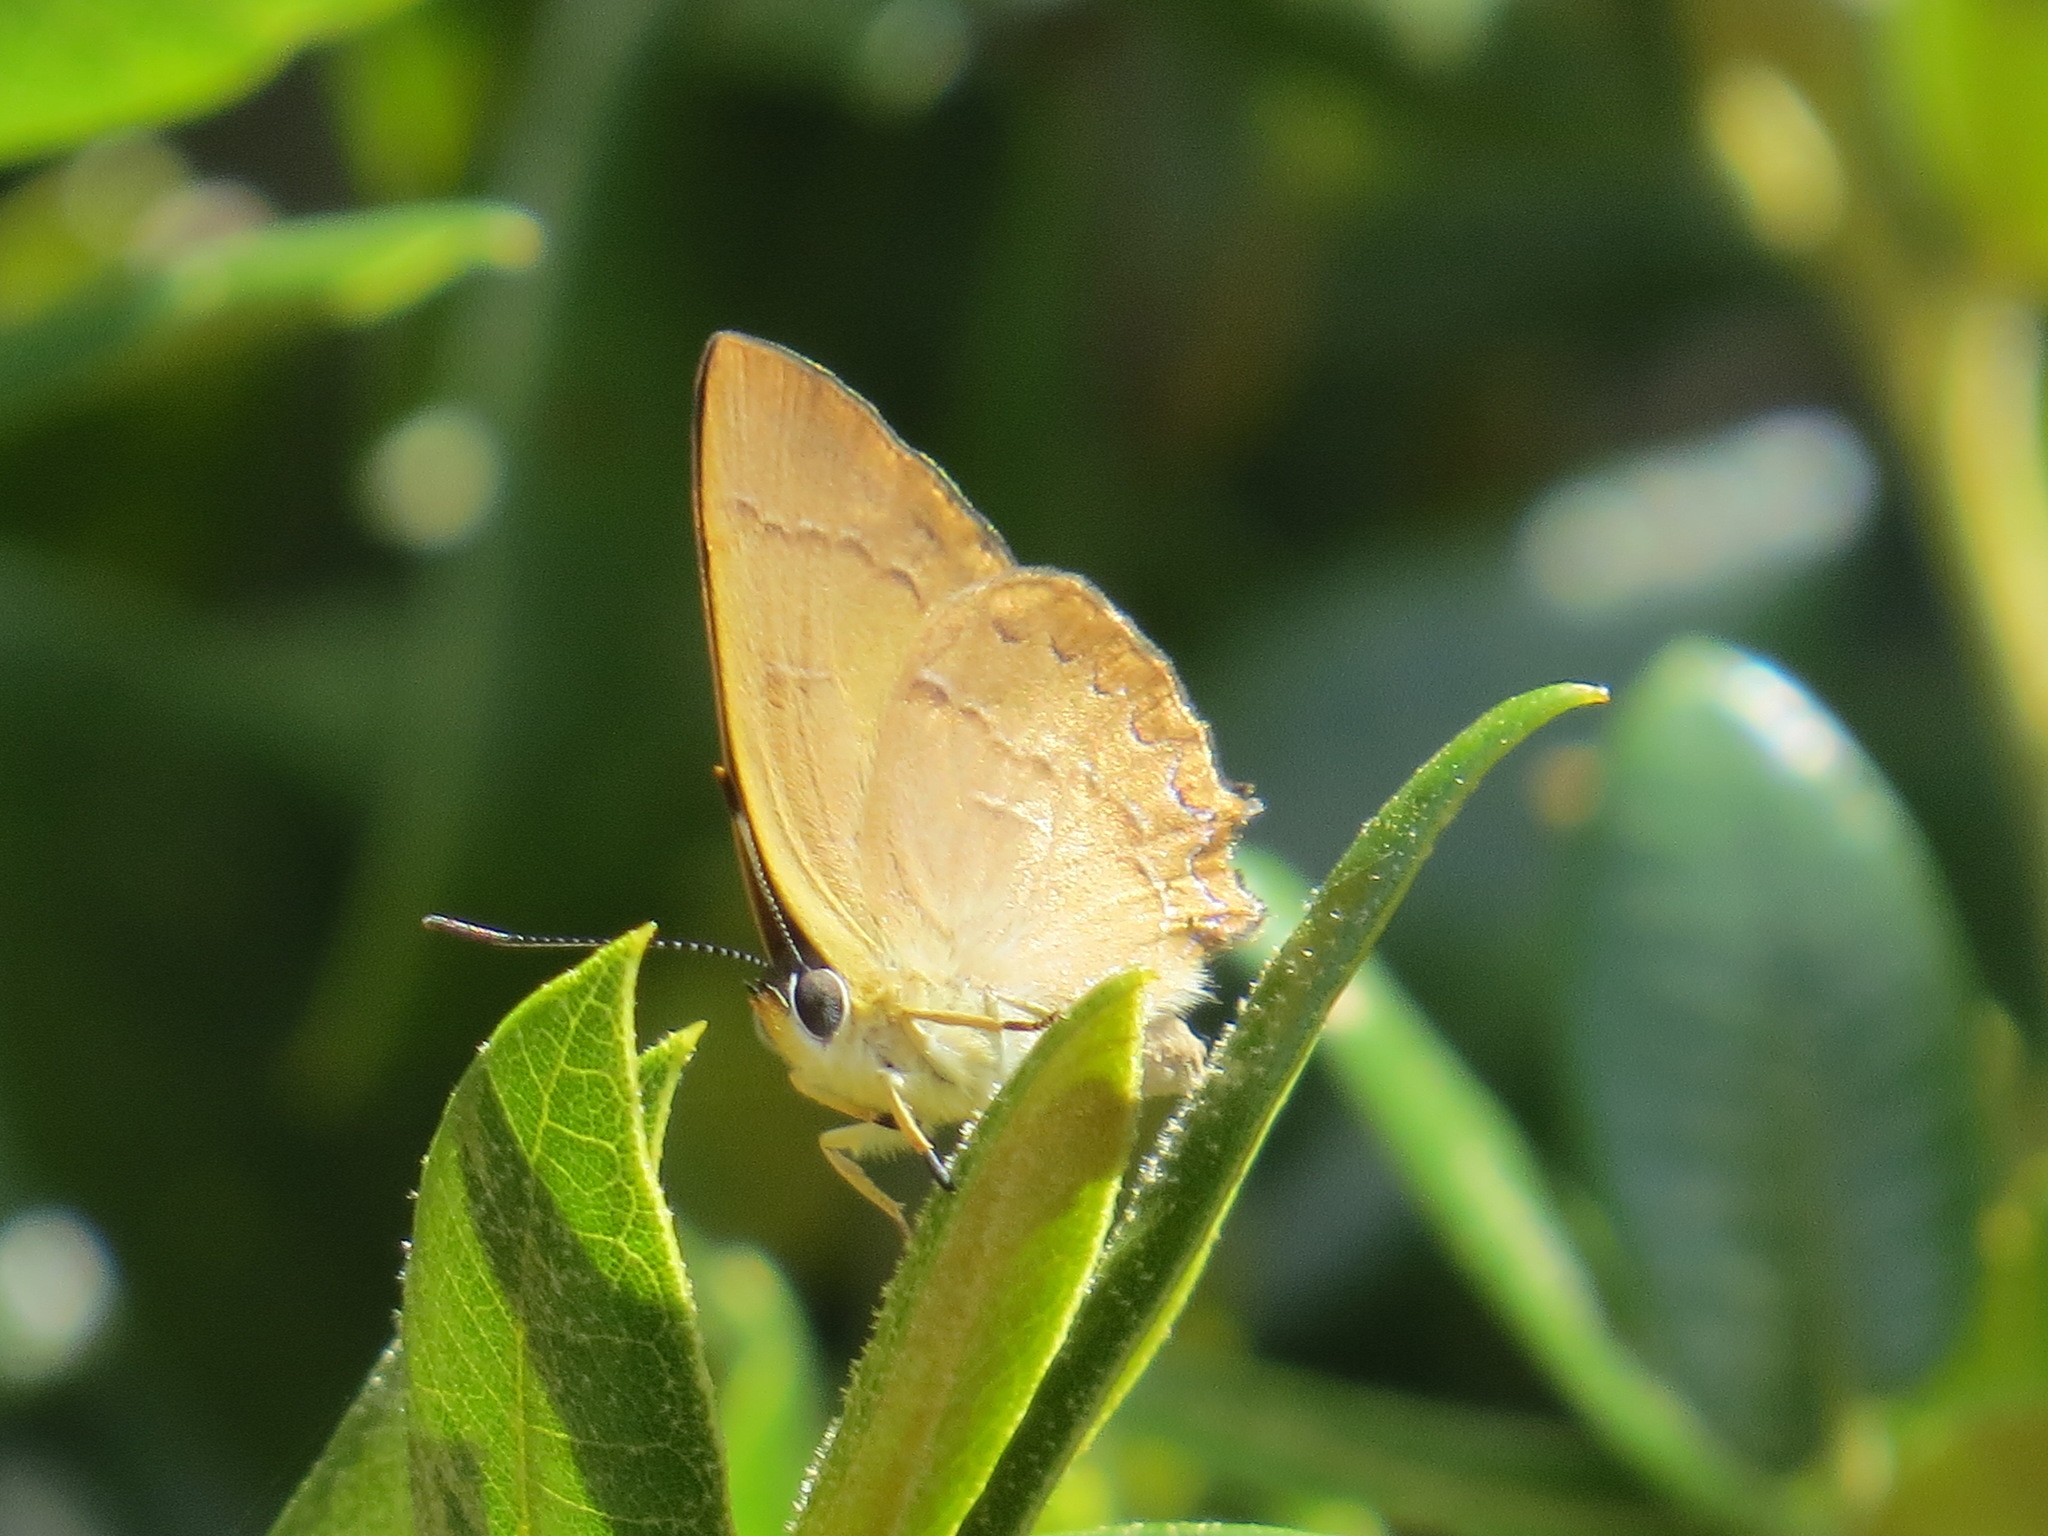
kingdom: Animalia
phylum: Arthropoda
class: Insecta
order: Lepidoptera
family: Lycaenidae
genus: Habrodais
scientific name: Habrodais grunus
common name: Golden hairstreak
